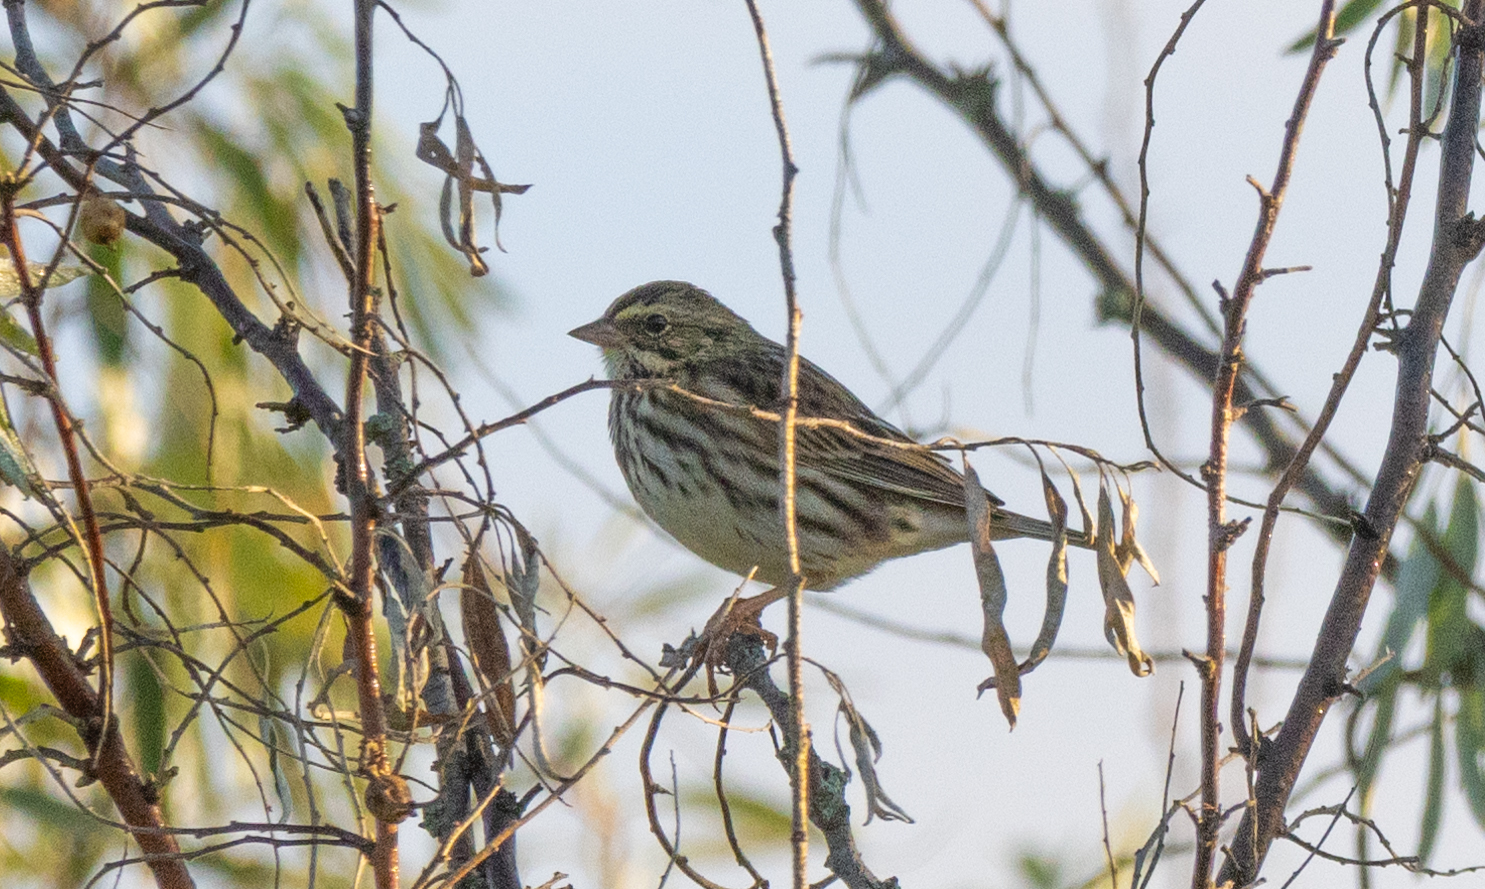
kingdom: Animalia
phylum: Chordata
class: Aves
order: Passeriformes
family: Passerellidae
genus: Passerculus
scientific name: Passerculus sandwichensis
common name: Savannah sparrow
